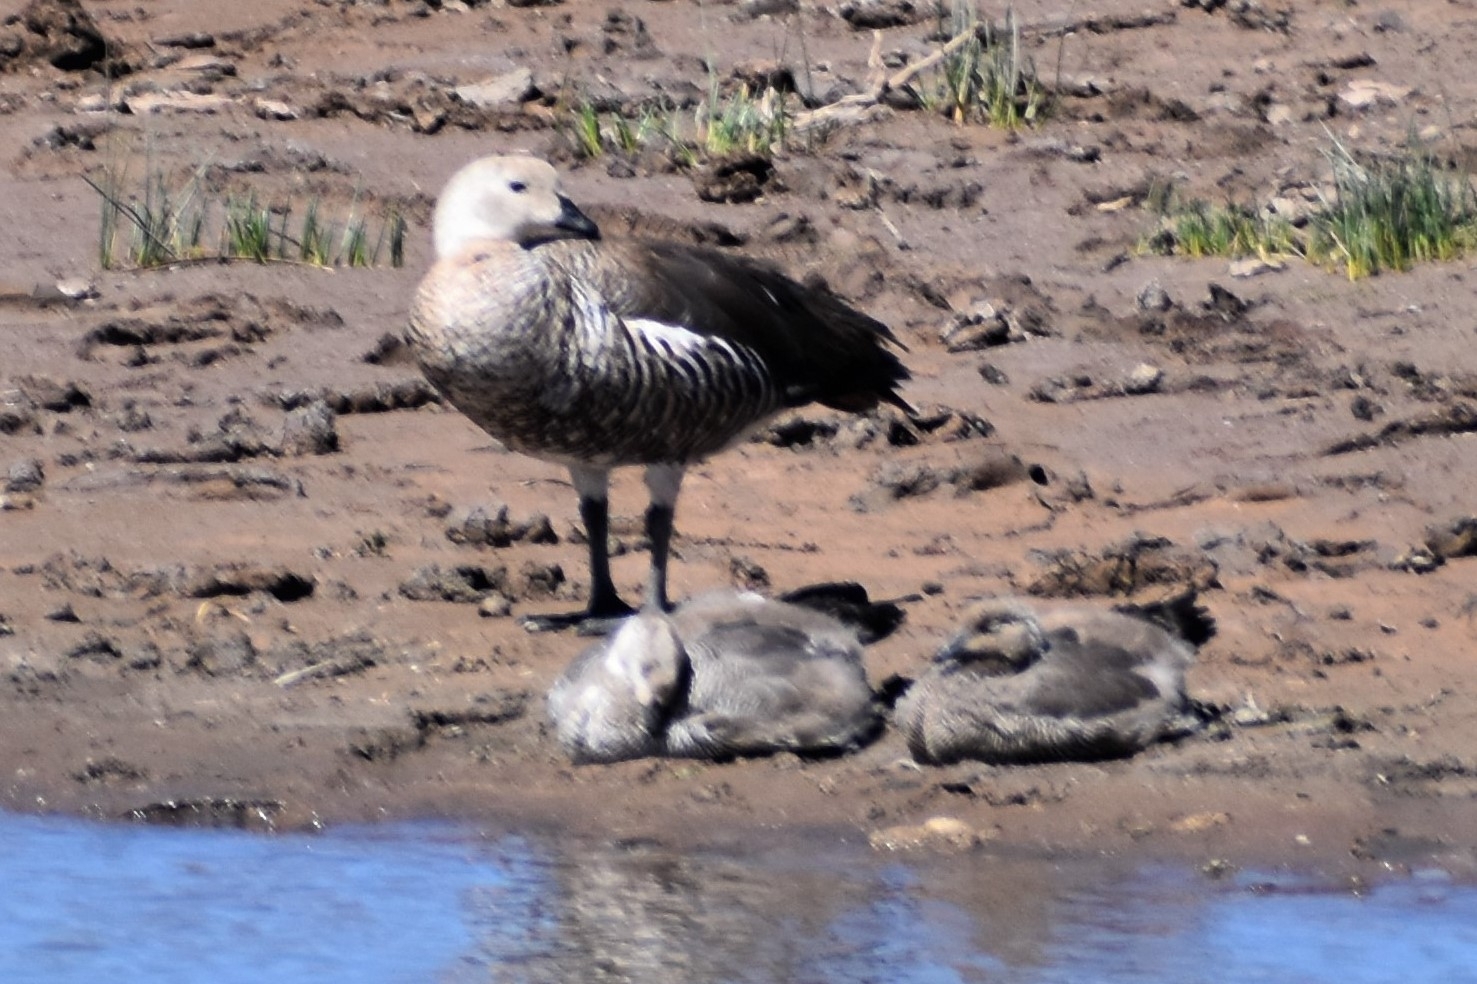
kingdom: Animalia
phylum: Chordata
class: Aves
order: Anseriformes
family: Anatidae
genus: Chloephaga
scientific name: Chloephaga picta
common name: Upland goose
